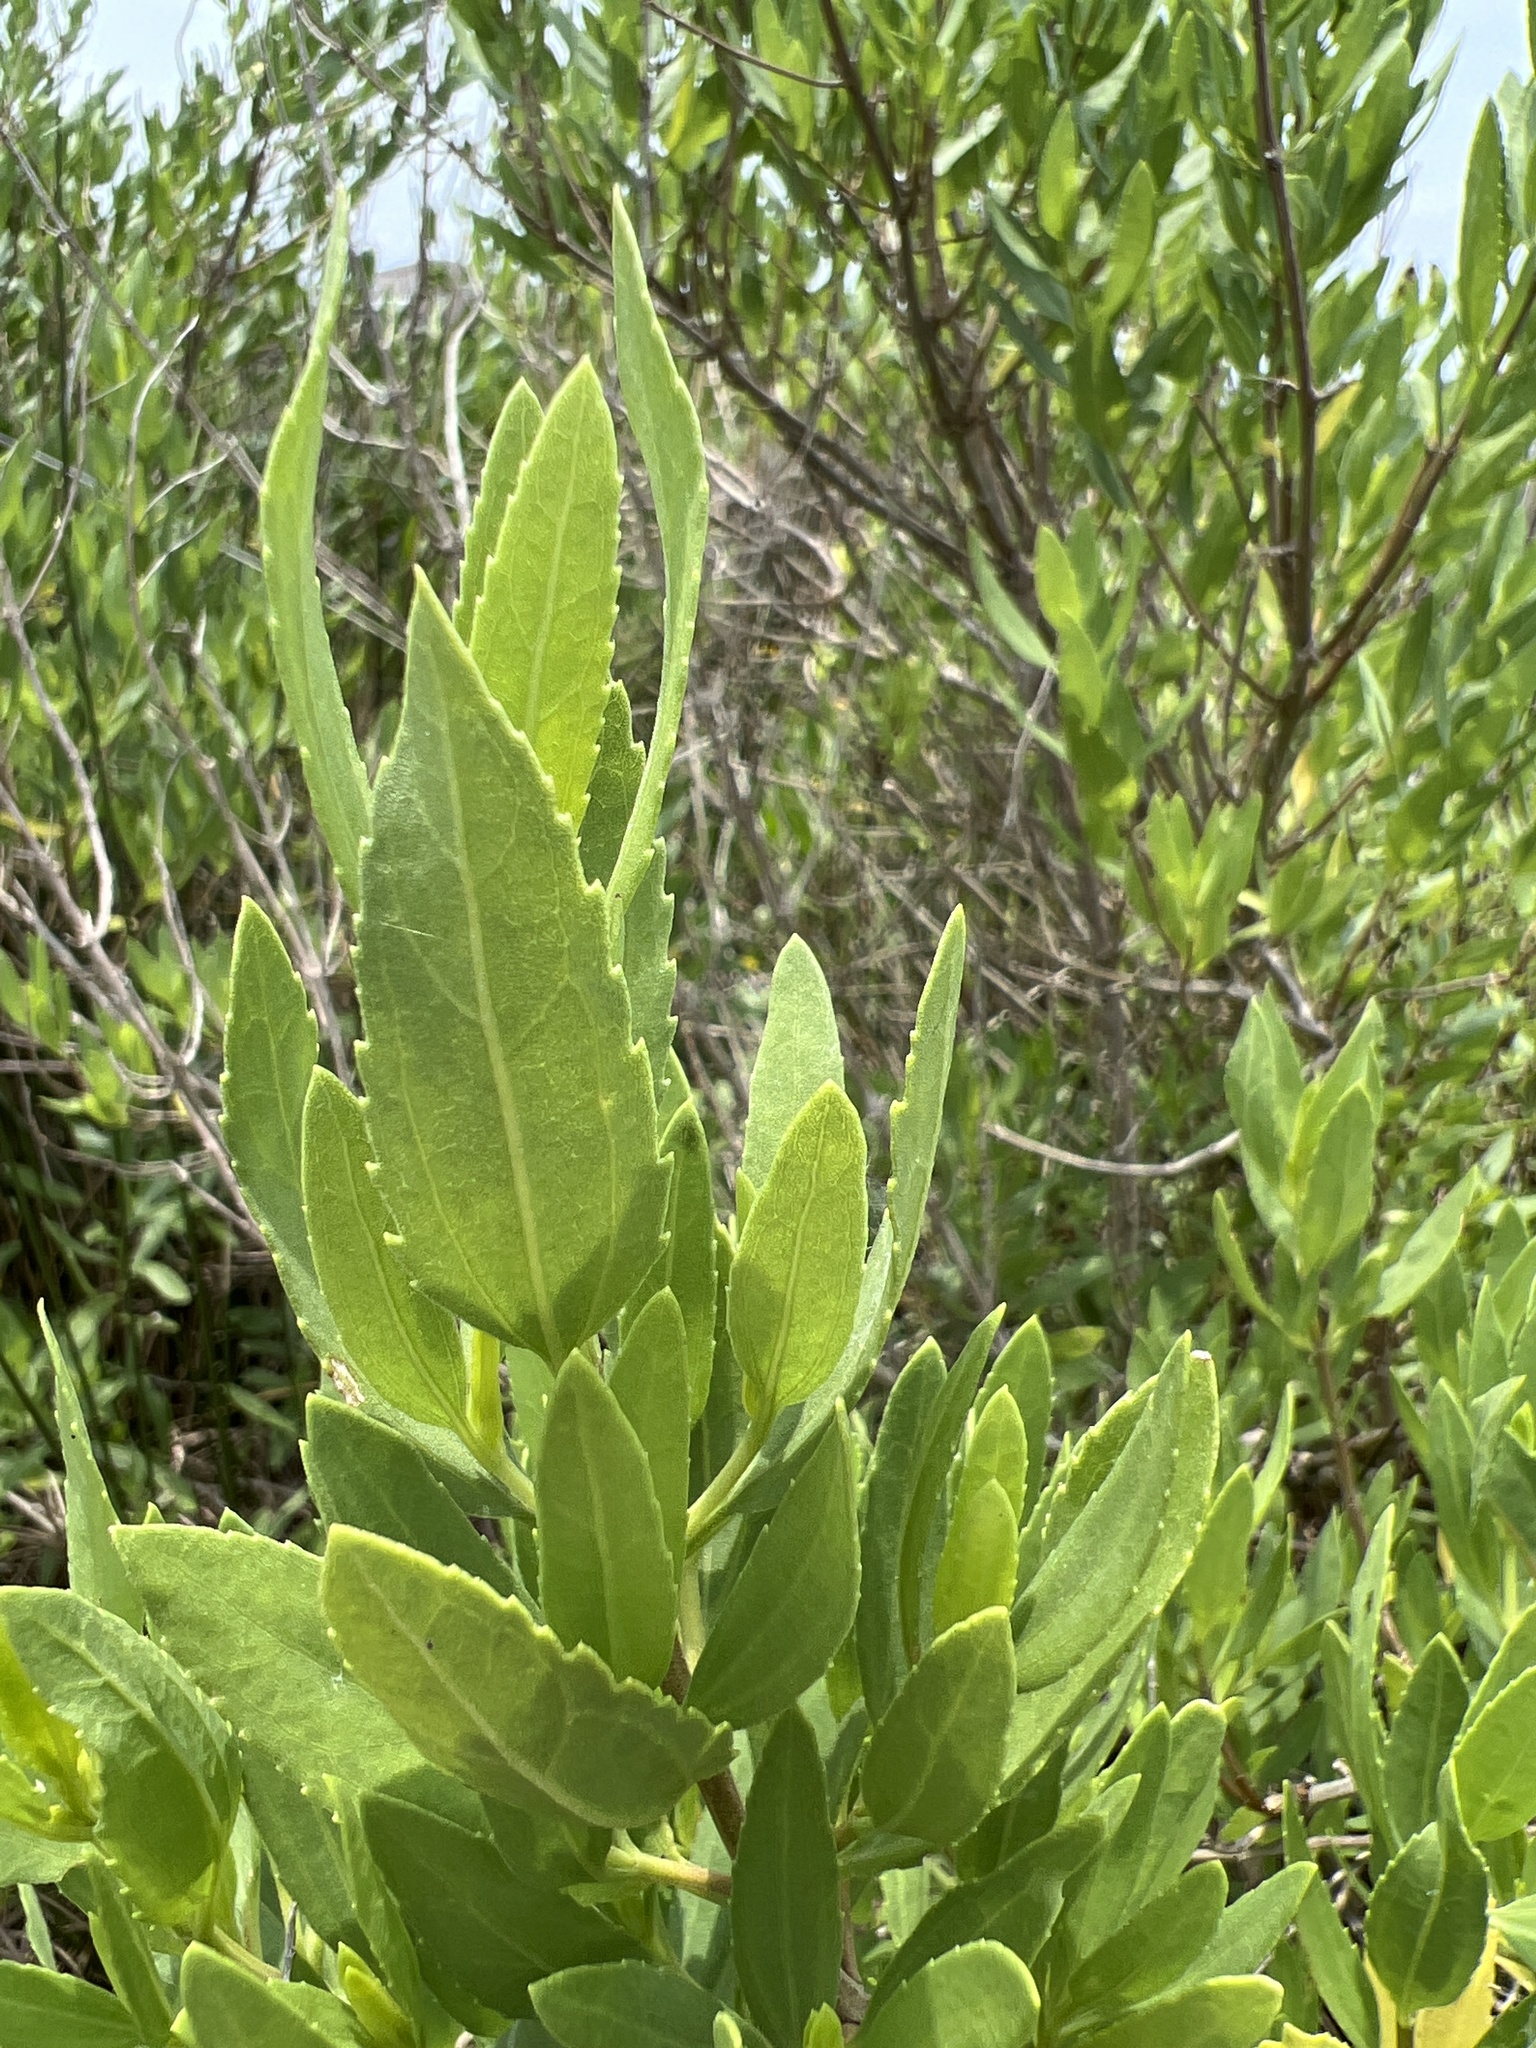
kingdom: Plantae
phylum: Tracheophyta
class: Magnoliopsida
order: Asterales
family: Asteraceae
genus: Iva
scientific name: Iva frutescens
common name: Big-leaved marsh-elder
